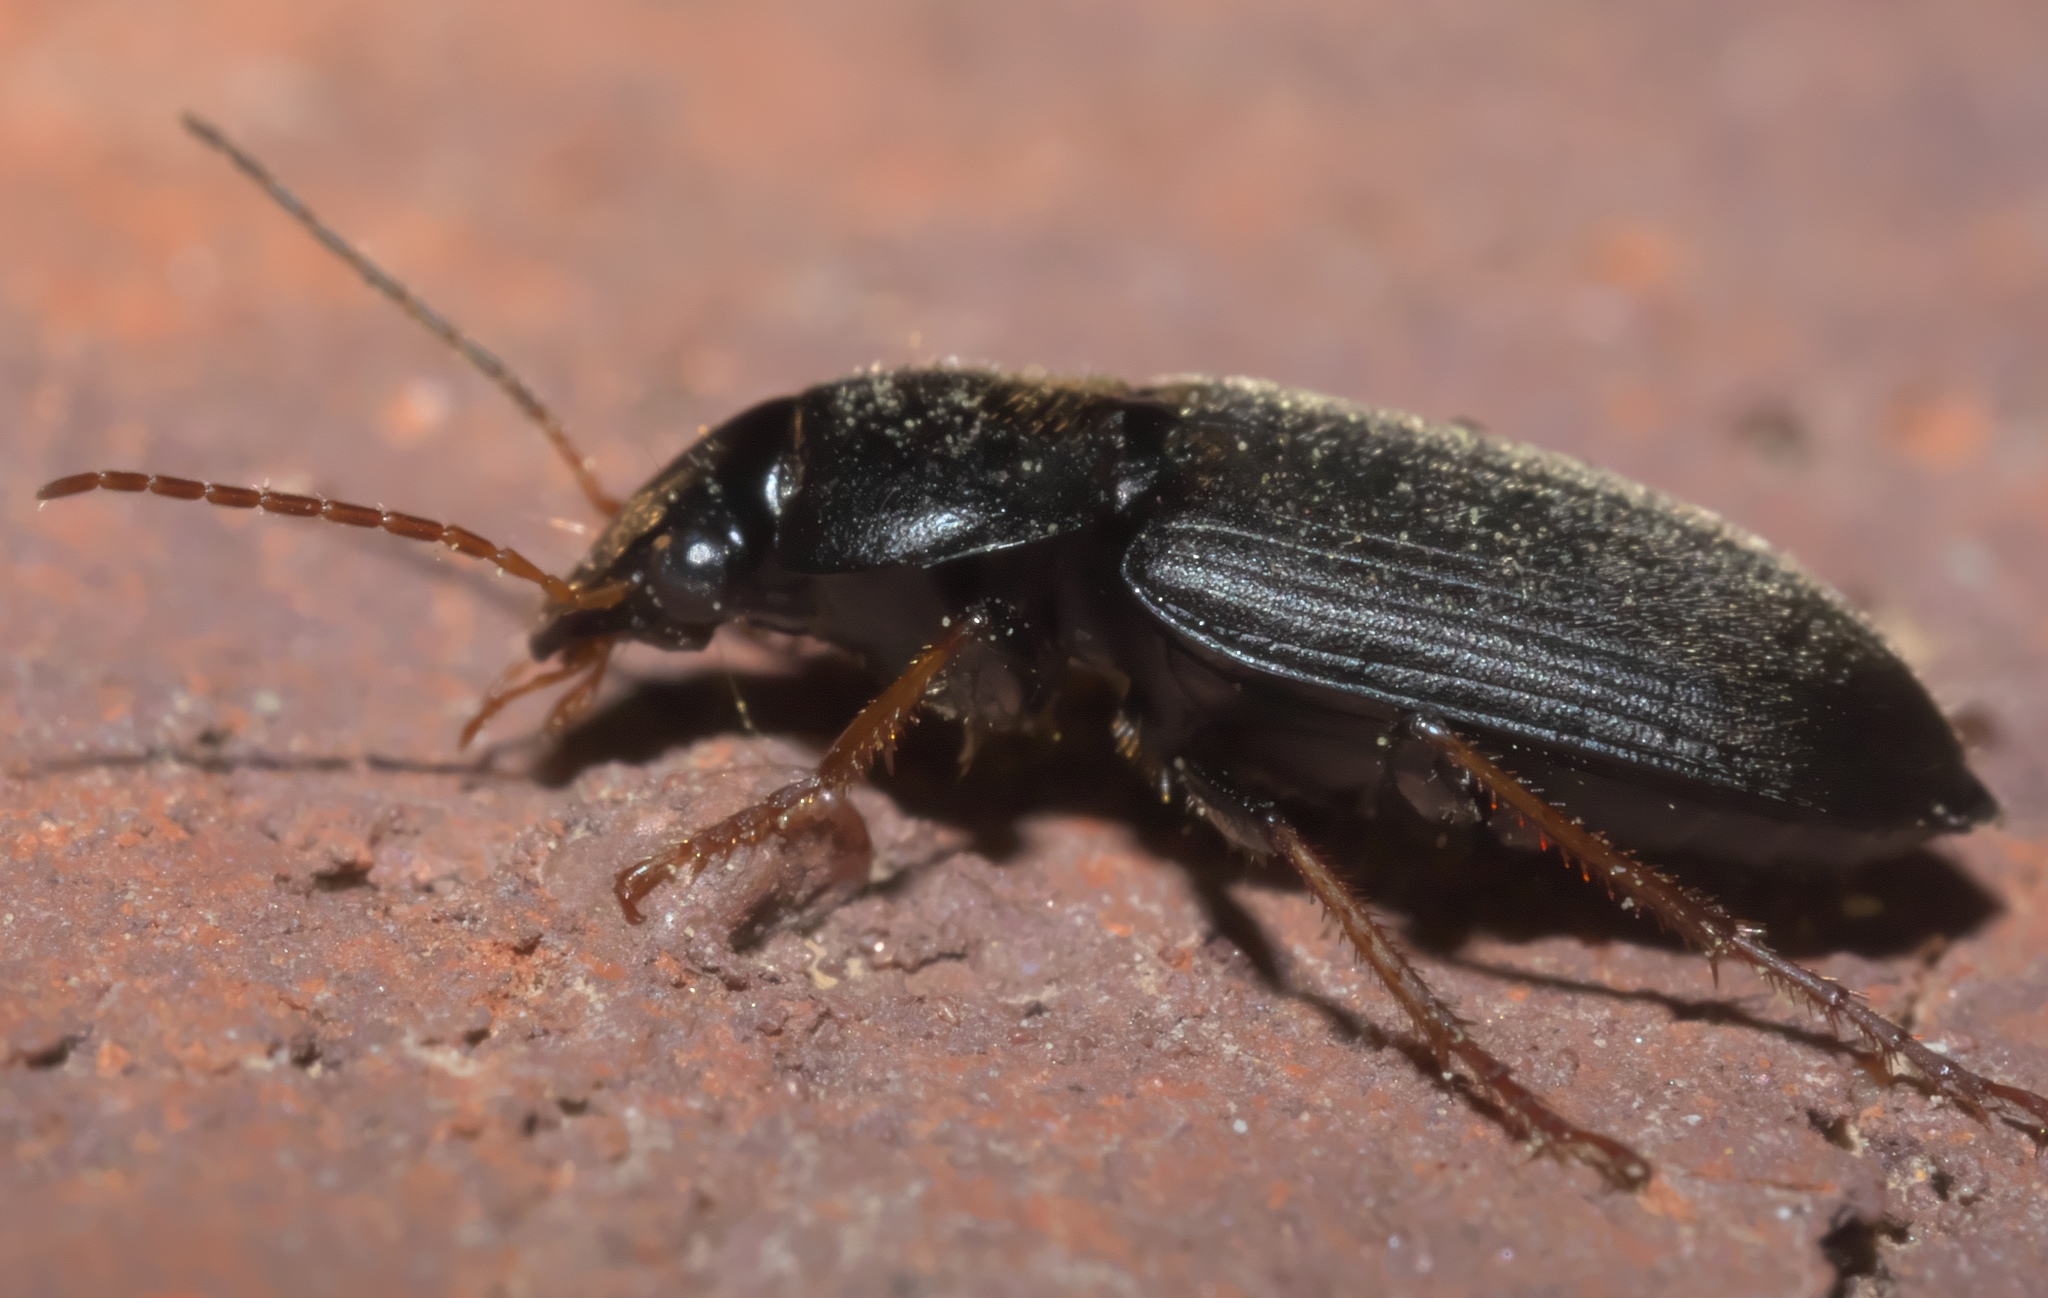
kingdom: Animalia
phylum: Arthropoda
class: Insecta
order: Coleoptera
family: Carabidae
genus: Amphasia
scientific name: Amphasia sericea
